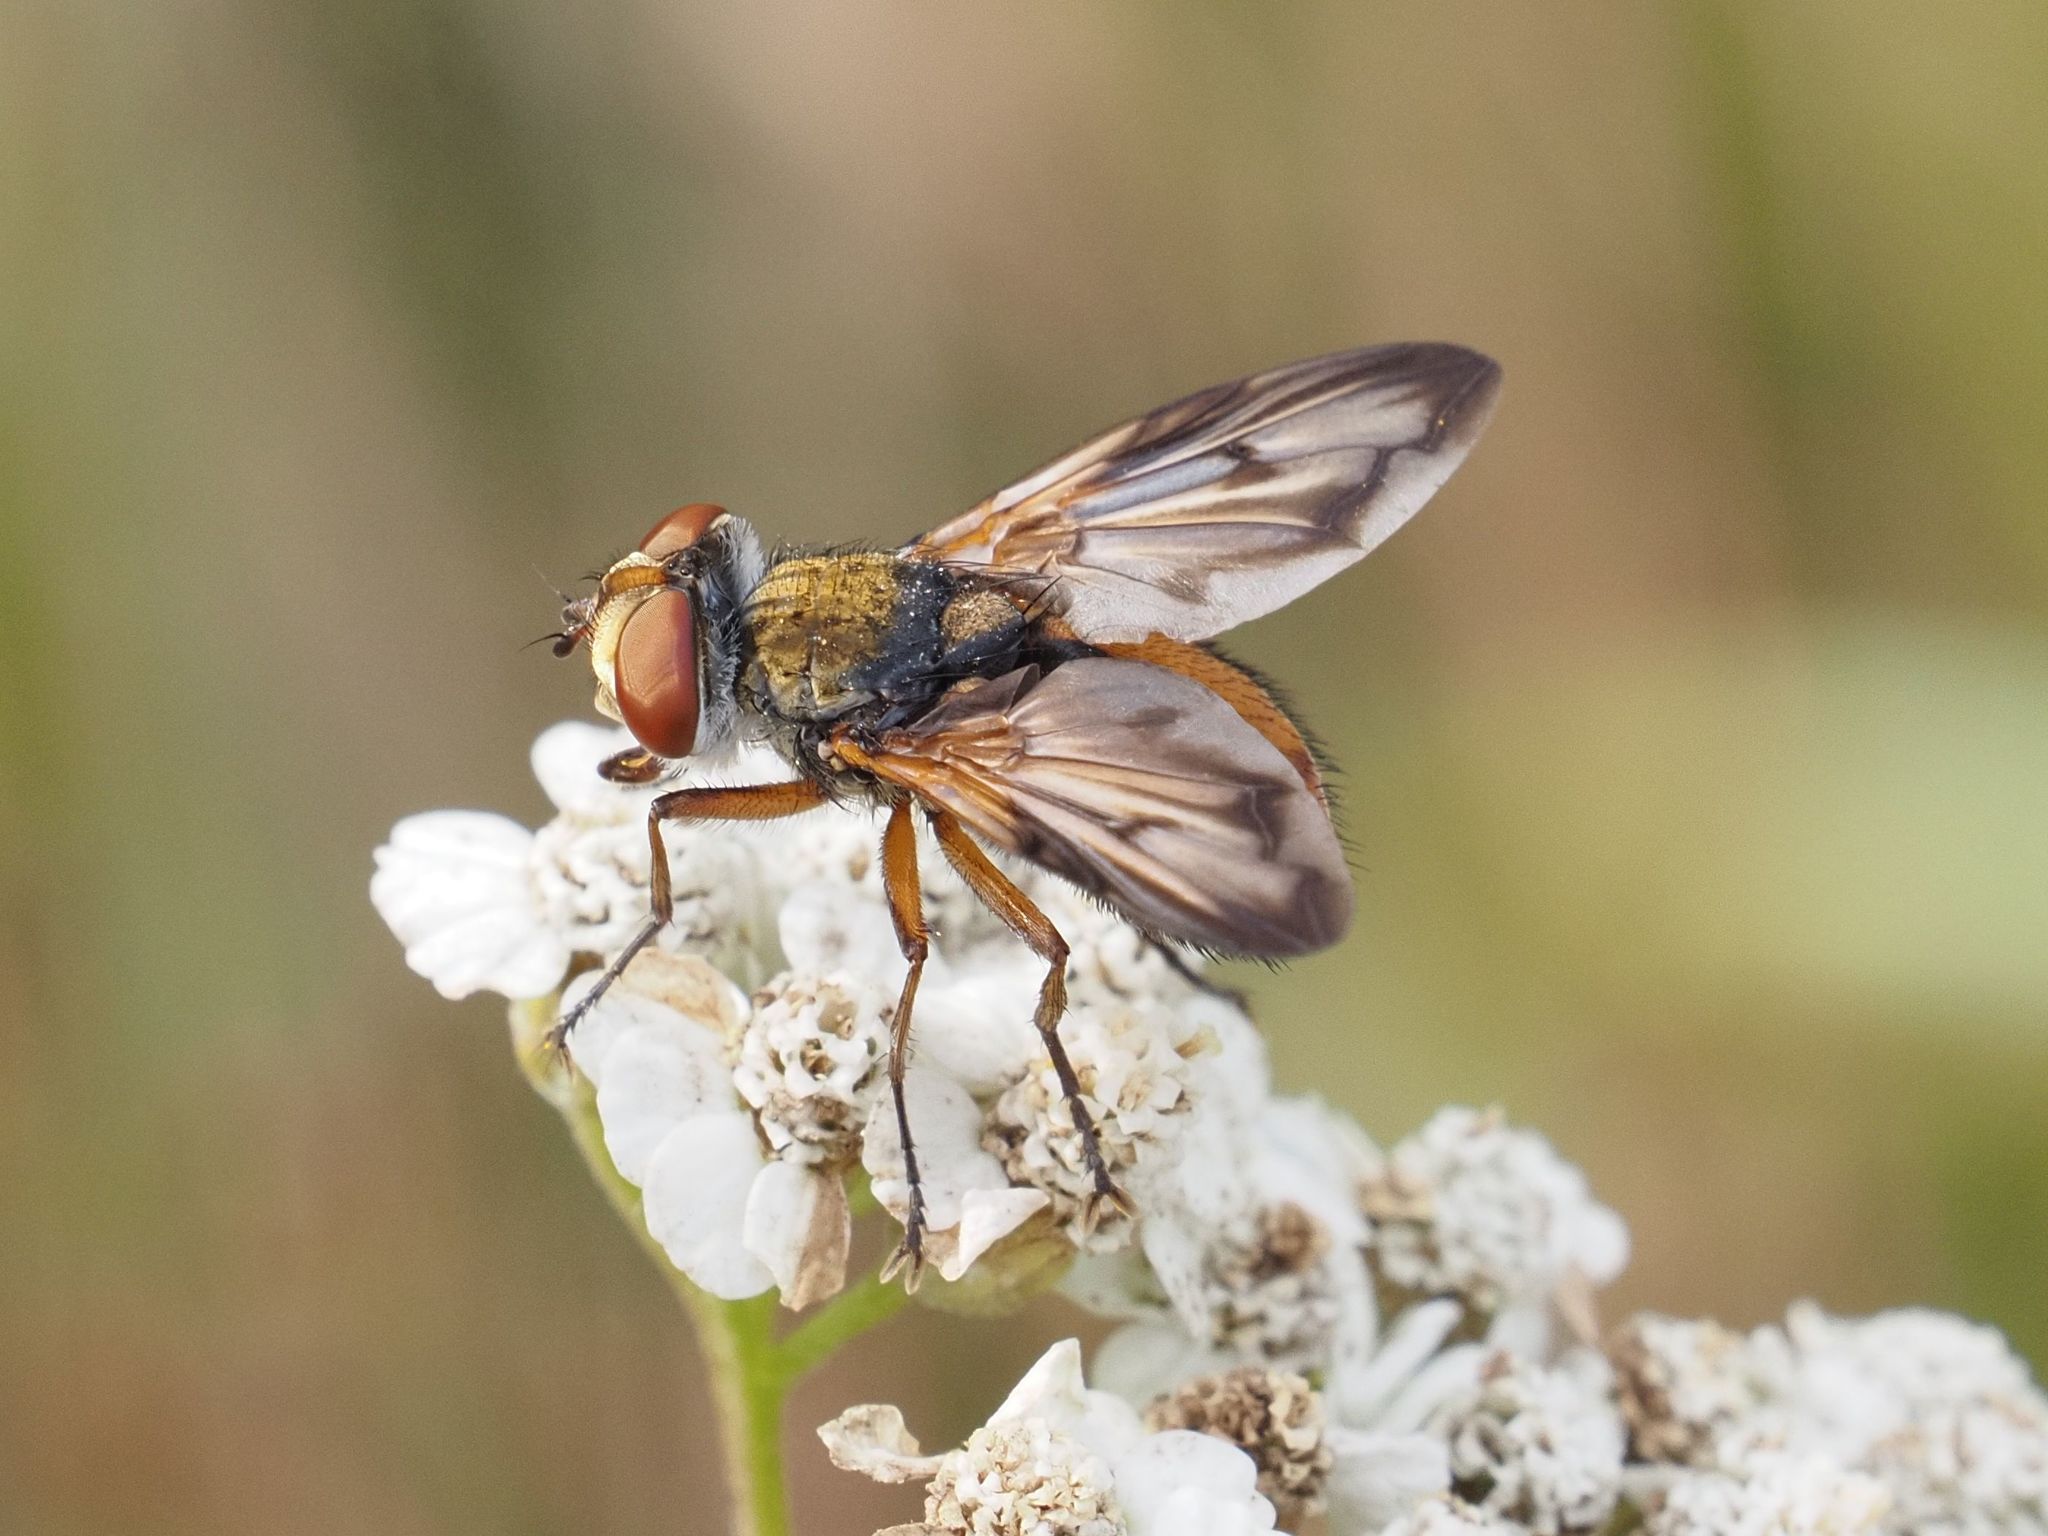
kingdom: Animalia
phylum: Arthropoda
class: Insecta
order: Diptera
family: Tachinidae
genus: Ectophasia
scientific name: Ectophasia crassipennis
